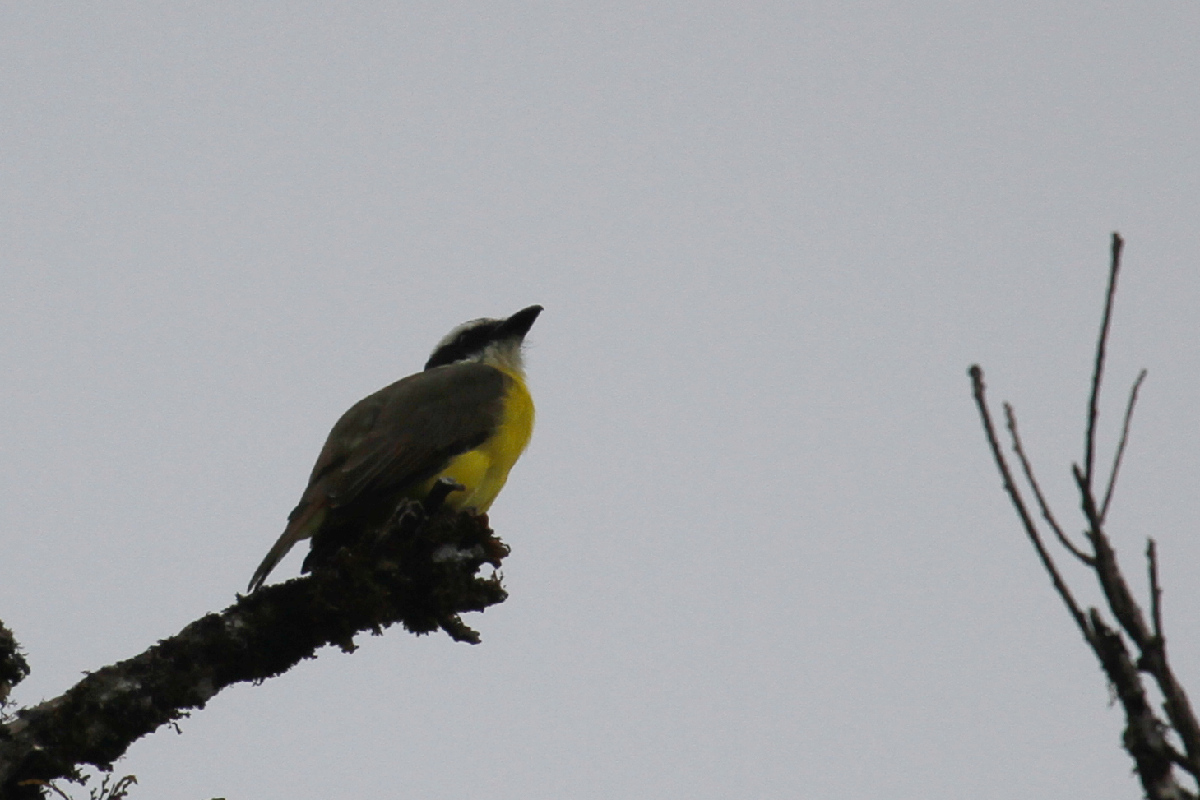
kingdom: Animalia
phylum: Chordata
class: Aves
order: Passeriformes
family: Tyrannidae
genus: Megarynchus
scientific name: Megarynchus pitangua
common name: Boat-billed flycatcher
